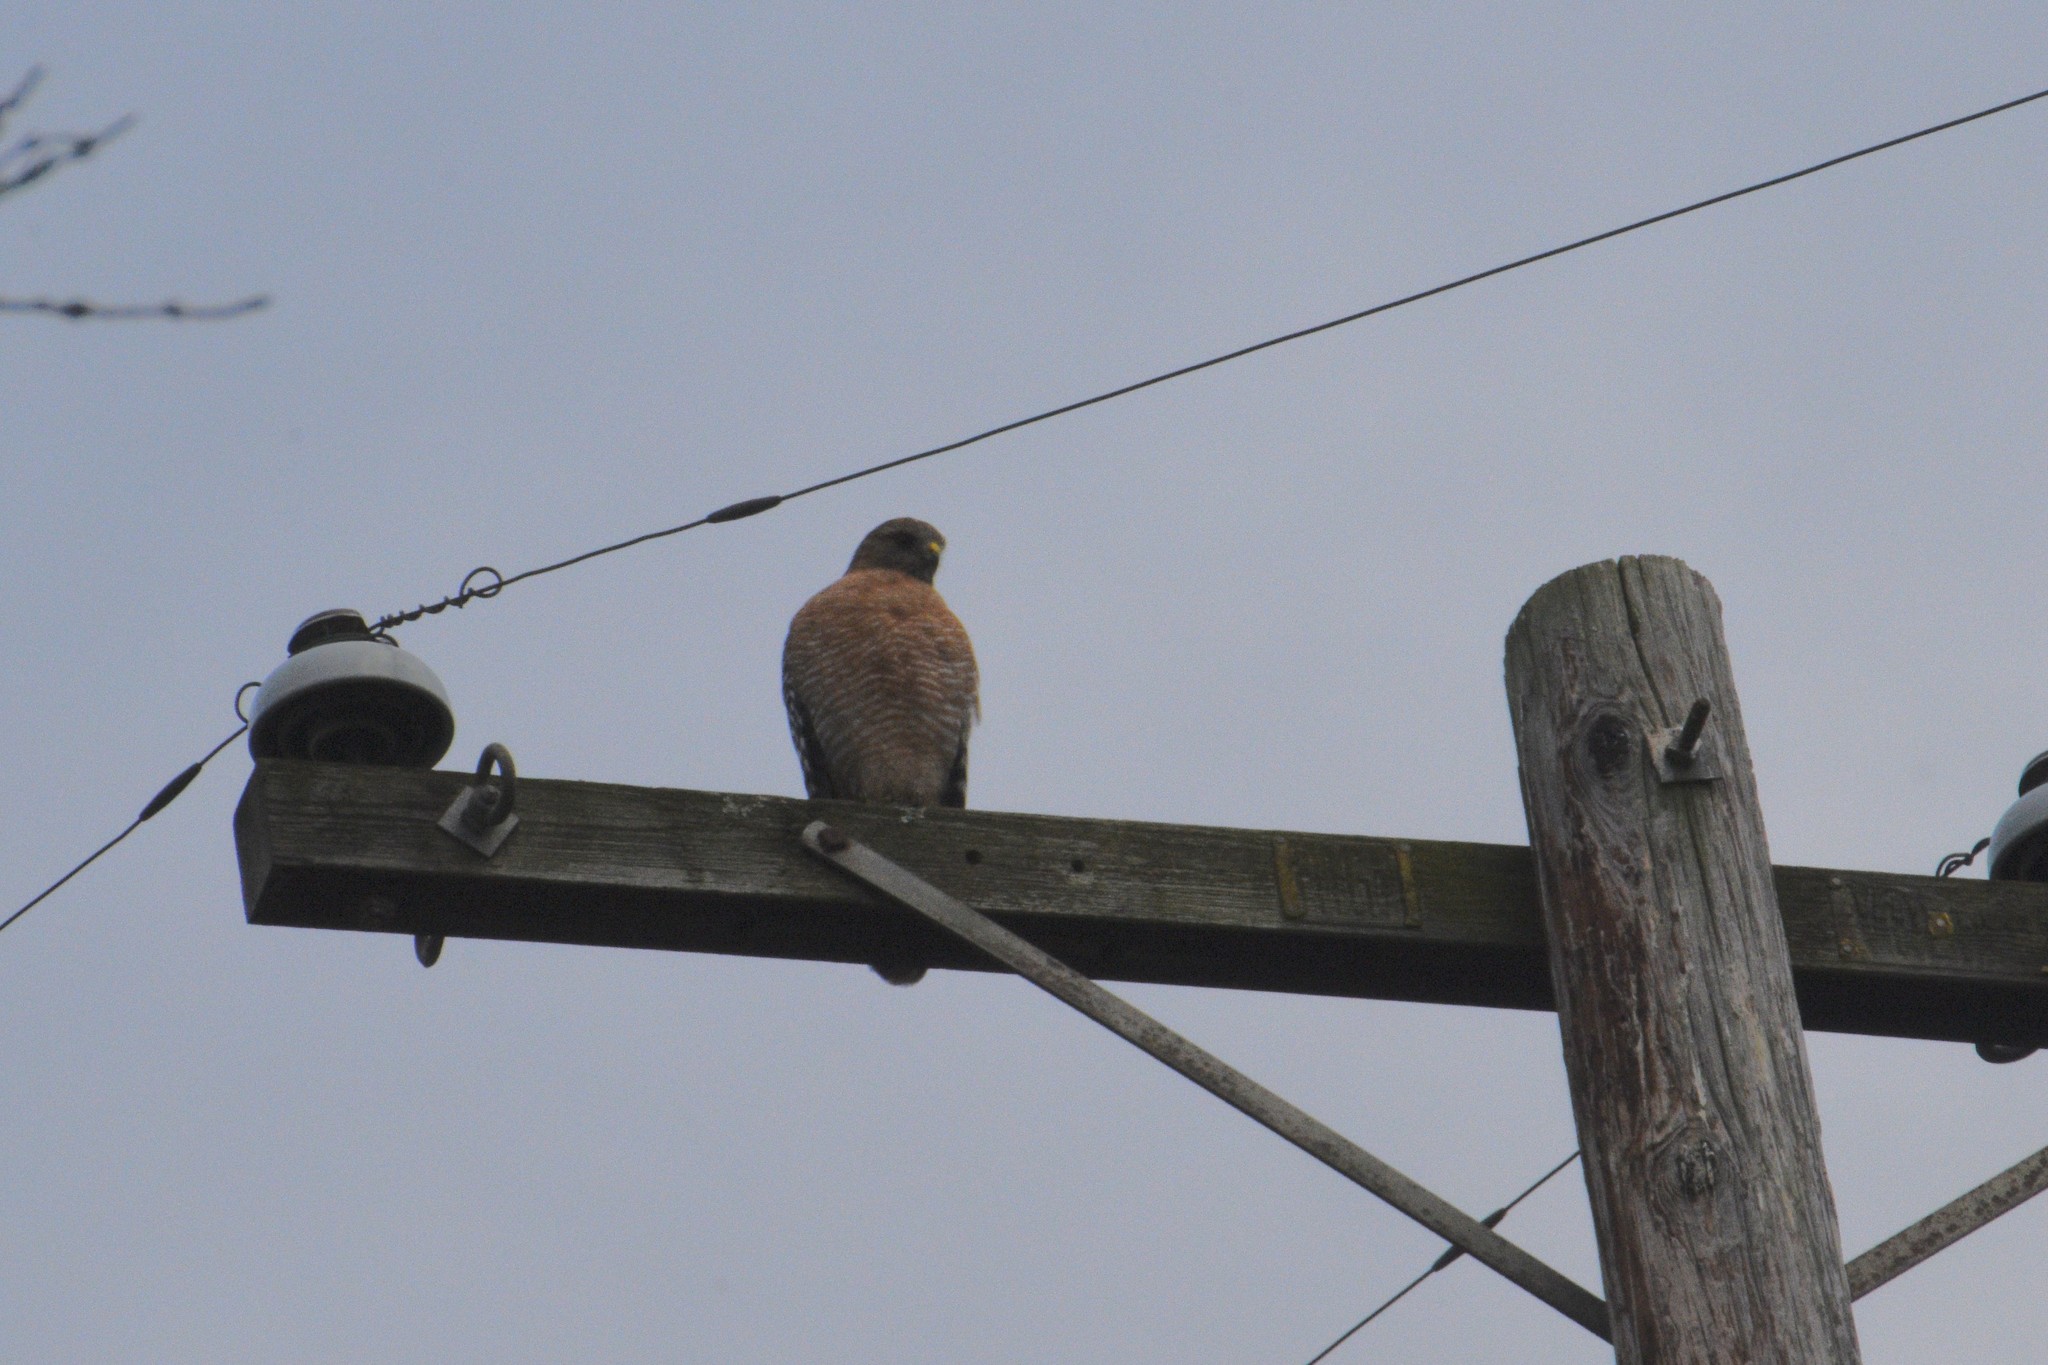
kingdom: Animalia
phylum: Chordata
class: Aves
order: Accipitriformes
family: Accipitridae
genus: Buteo
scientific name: Buteo lineatus
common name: Red-shouldered hawk
